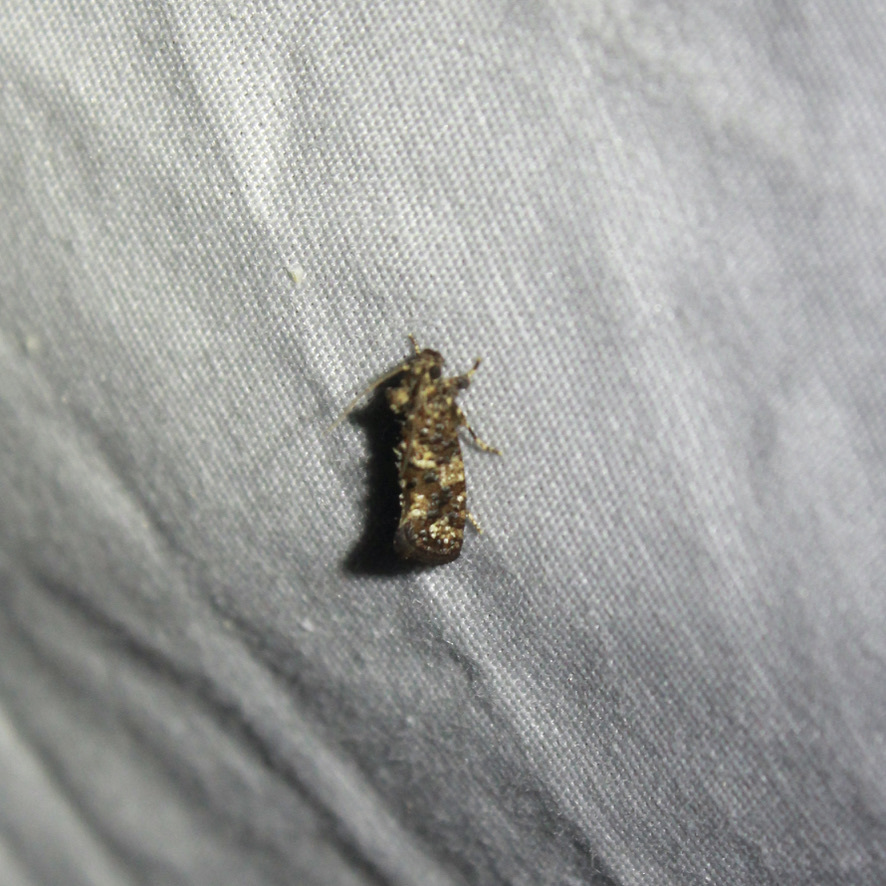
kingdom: Animalia
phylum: Arthropoda
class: Insecta
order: Lepidoptera
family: Tineidae
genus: Acrolophus
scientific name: Acrolophus cressoni
